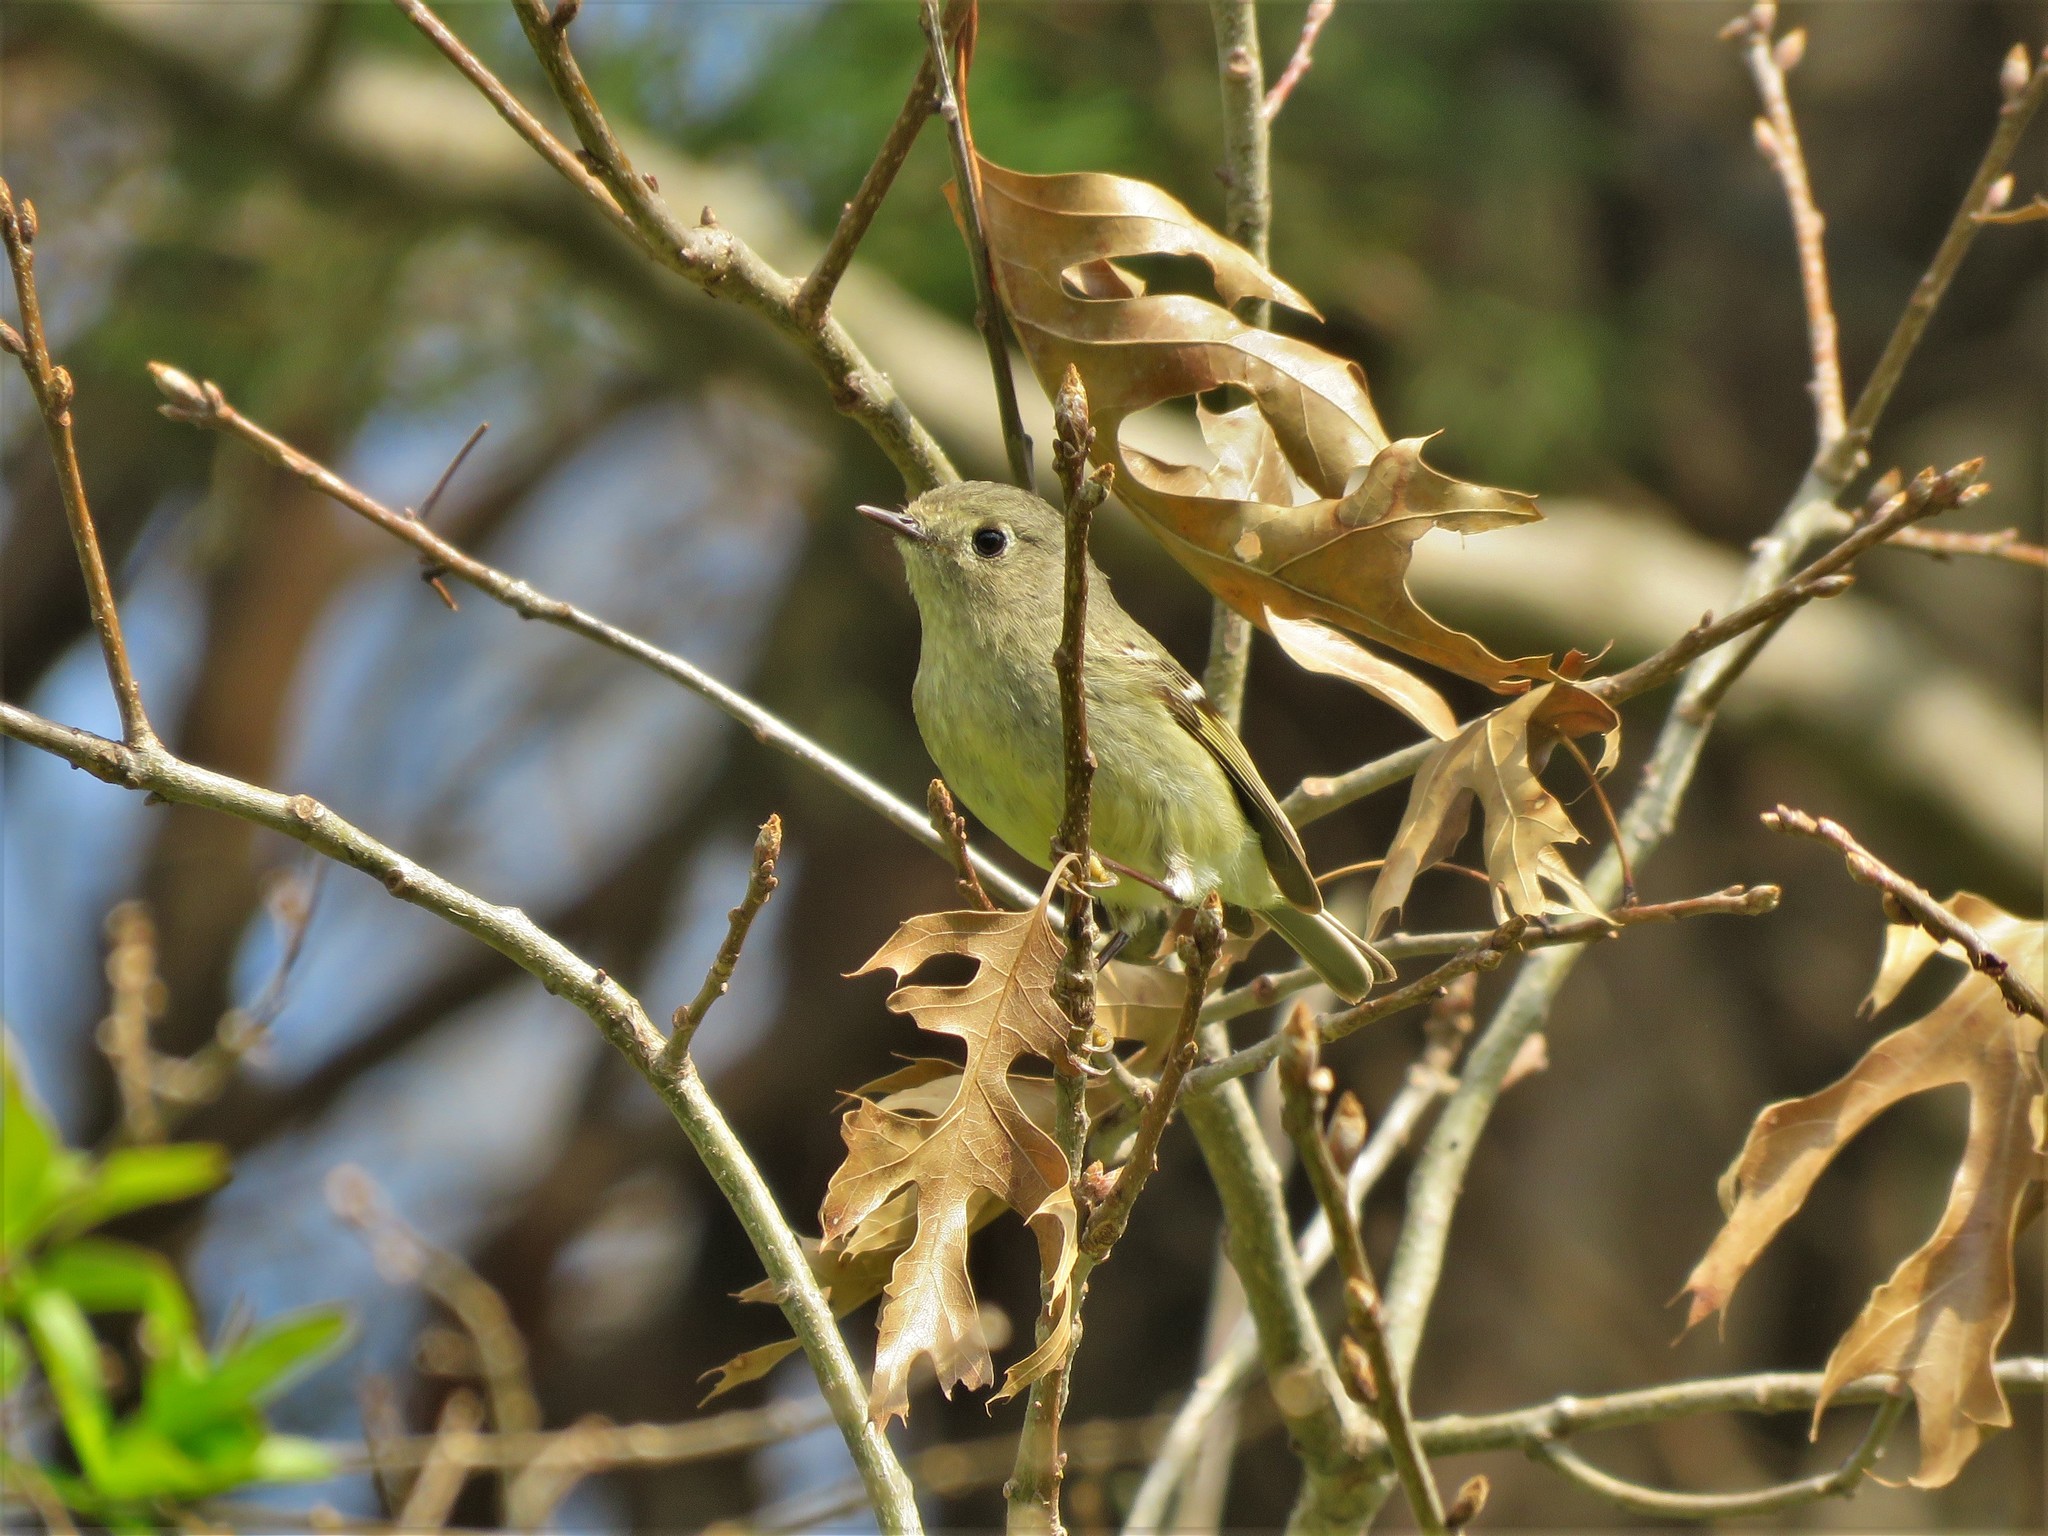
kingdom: Animalia
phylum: Chordata
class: Aves
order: Passeriformes
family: Regulidae
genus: Regulus
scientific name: Regulus calendula
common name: Ruby-crowned kinglet
